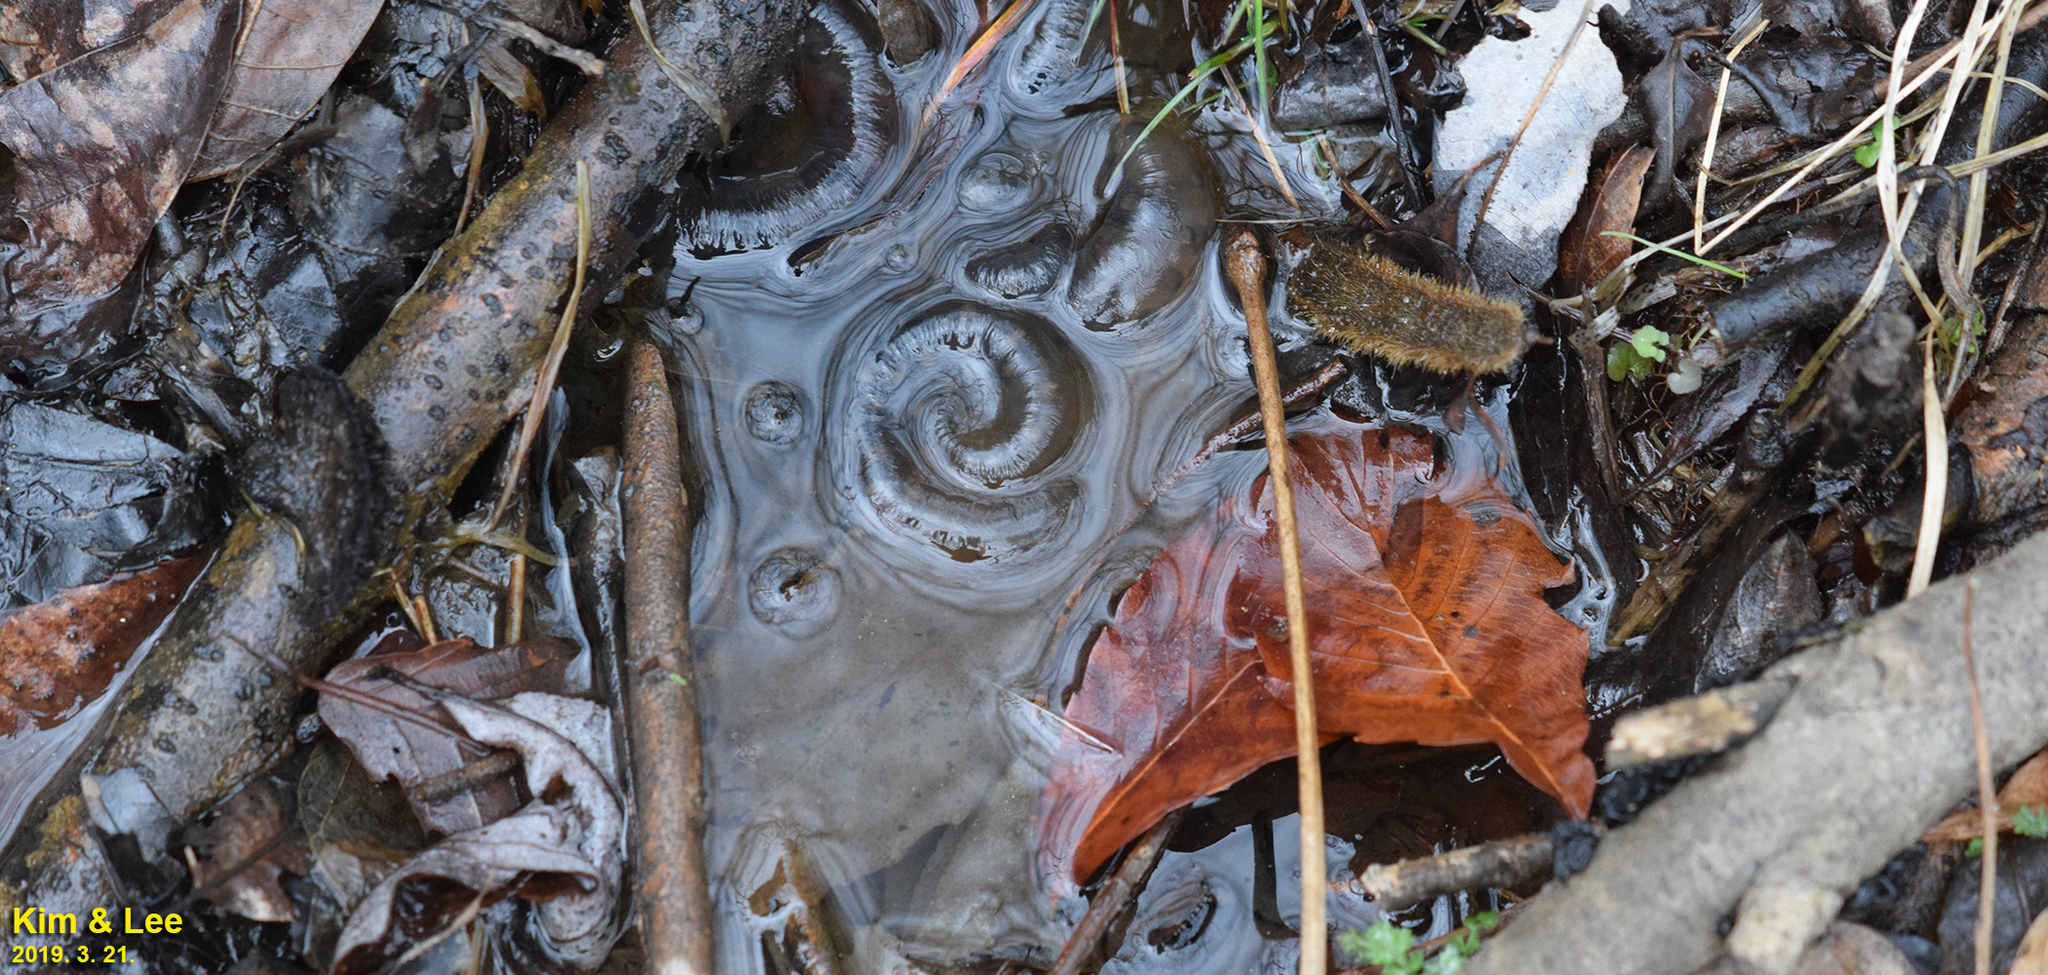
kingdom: Animalia
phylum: Chordata
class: Amphibia
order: Caudata
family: Hynobiidae
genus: Hynobius
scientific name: Hynobius leechii
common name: Gensan salamander
